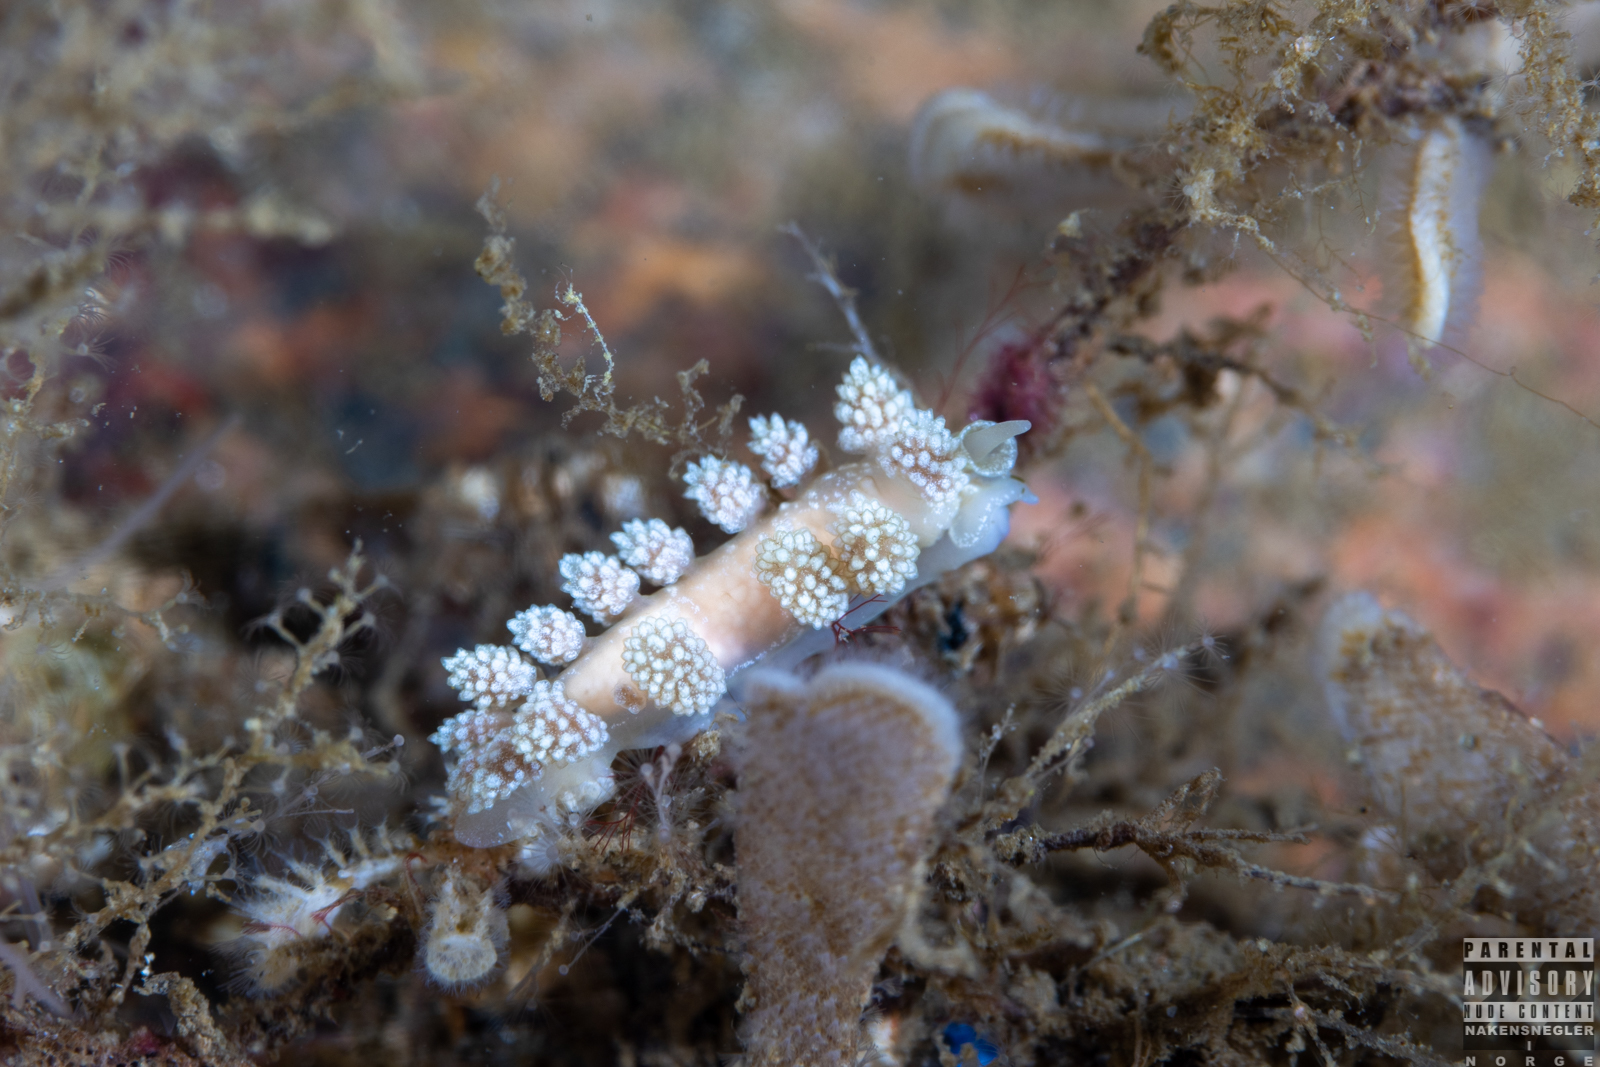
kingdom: Animalia
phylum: Mollusca
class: Gastropoda
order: Nudibranchia
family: Dotidae
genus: Doto
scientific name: Doto fragilis
